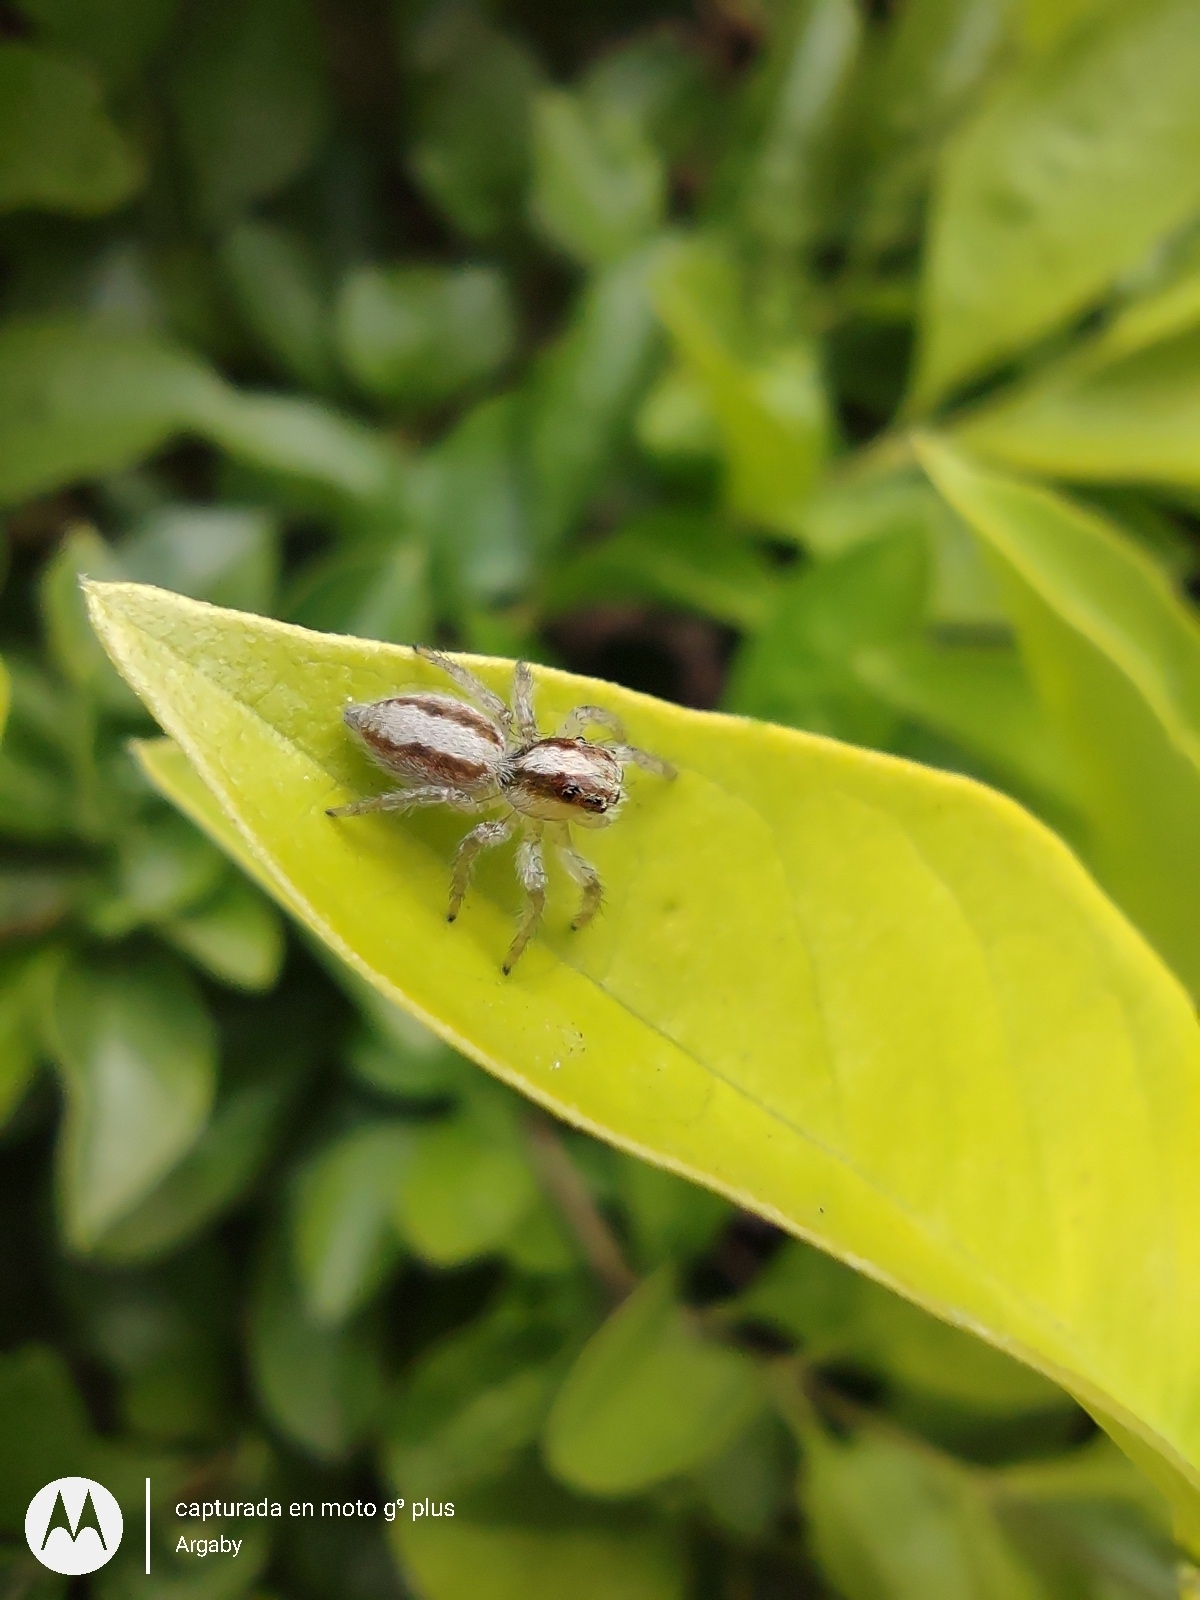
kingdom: Animalia
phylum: Arthropoda
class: Arachnida
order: Araneae
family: Salticidae
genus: Megafreya
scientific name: Megafreya sutrix
